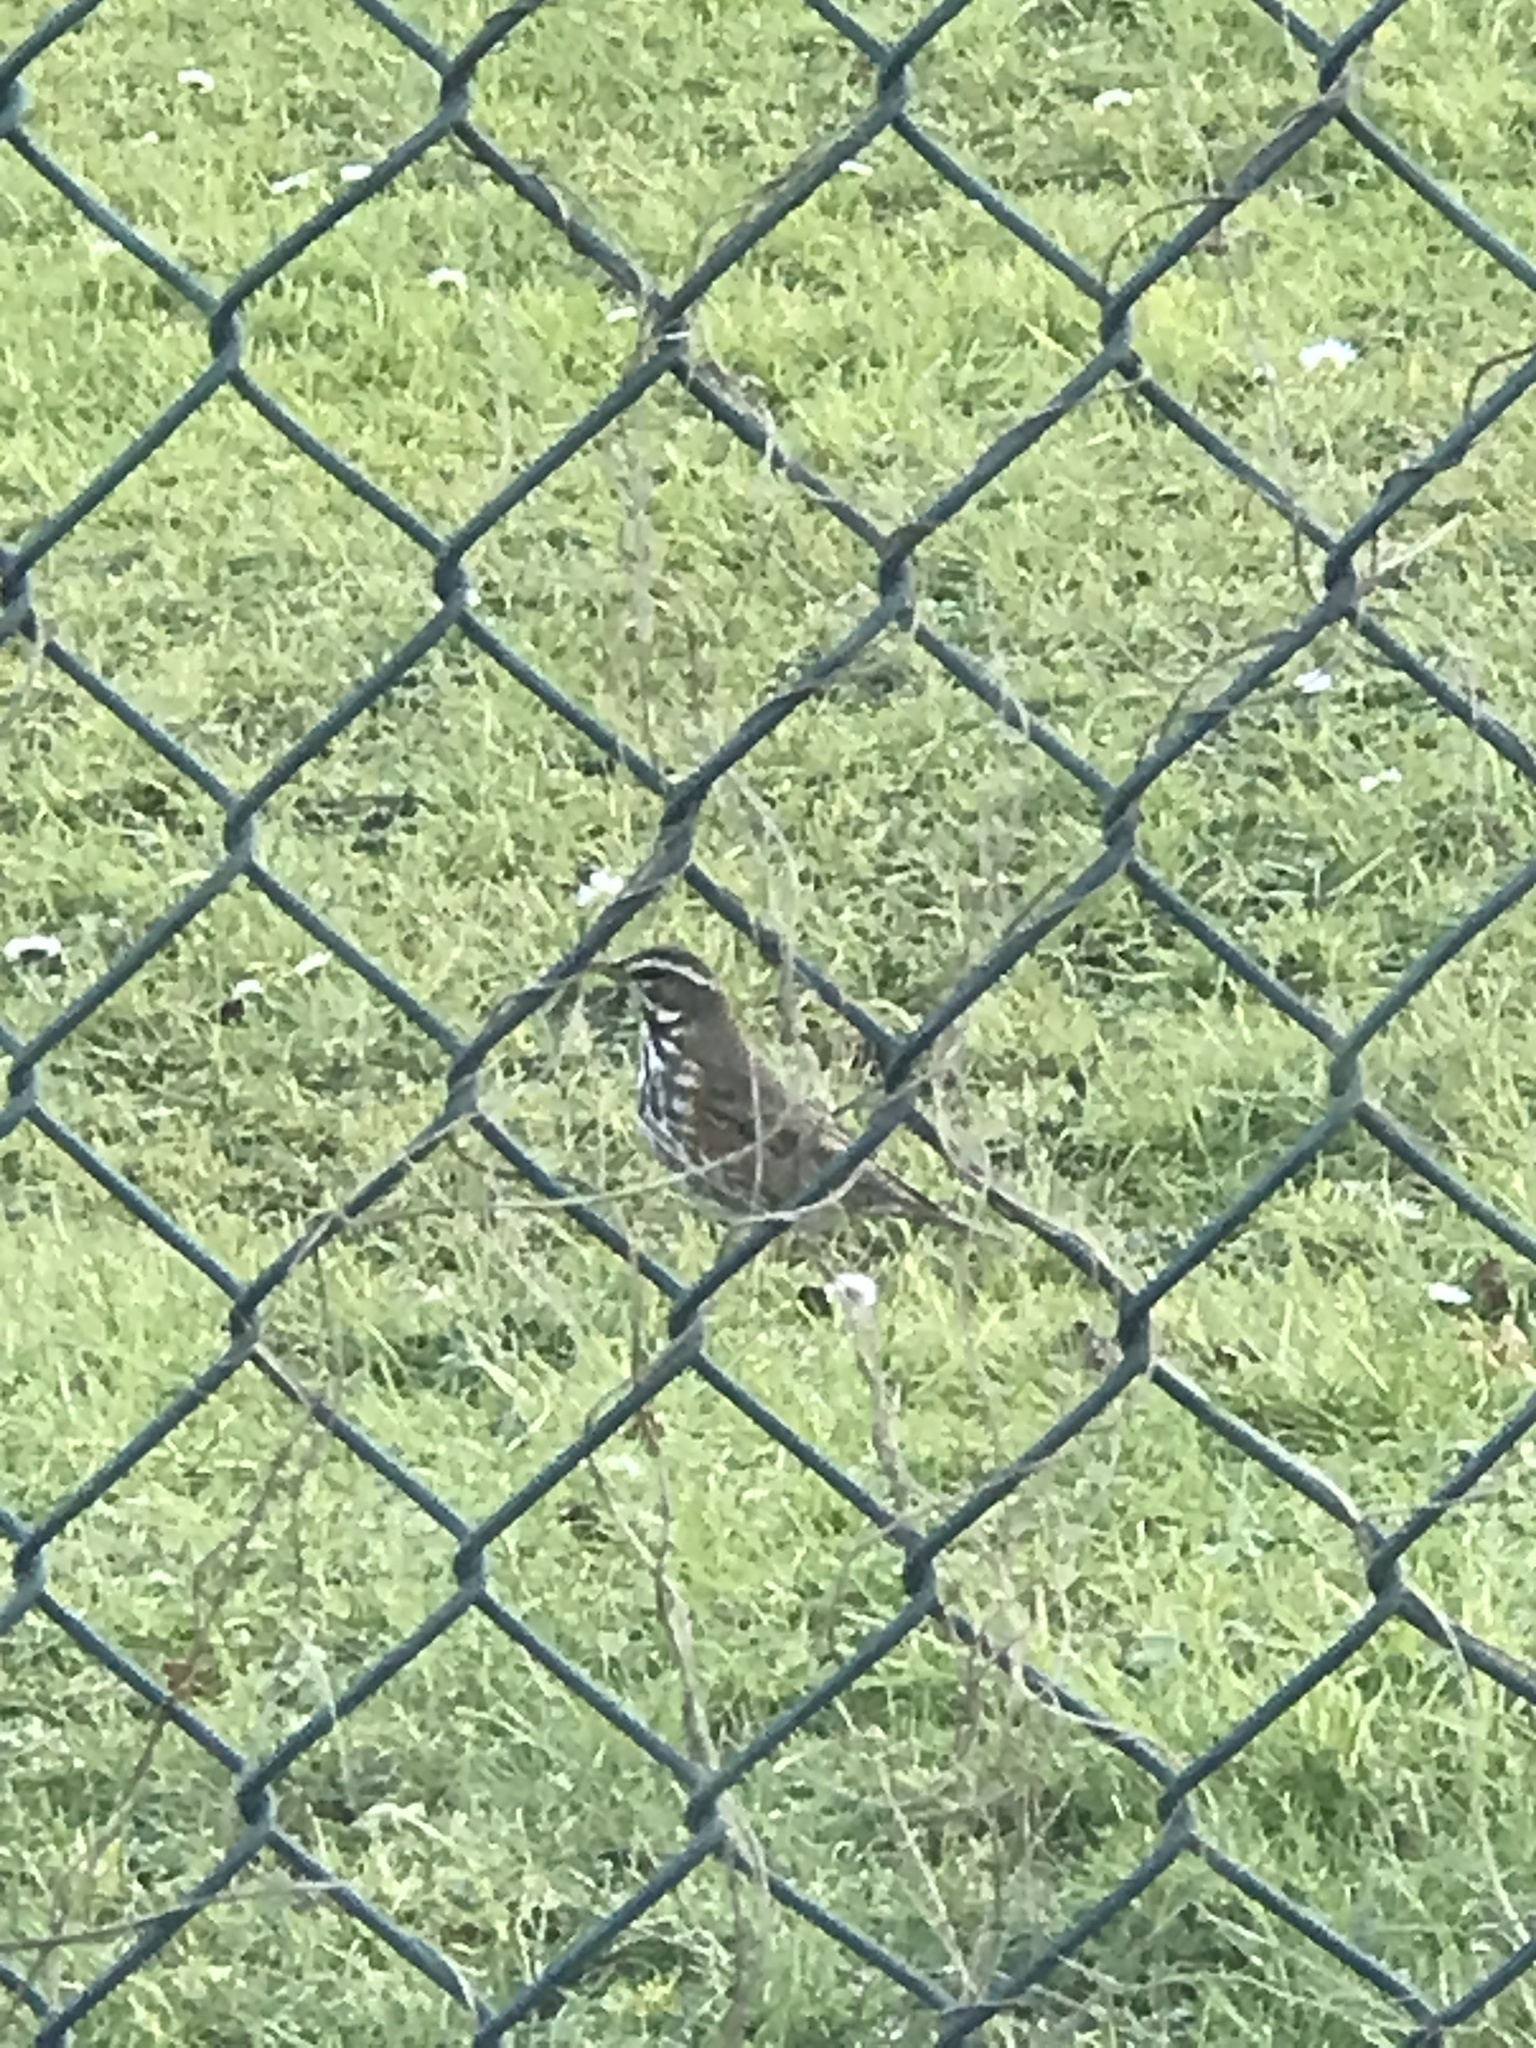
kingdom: Animalia
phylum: Chordata
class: Aves
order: Passeriformes
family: Turdidae
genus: Turdus
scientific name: Turdus iliacus
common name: Redwing
